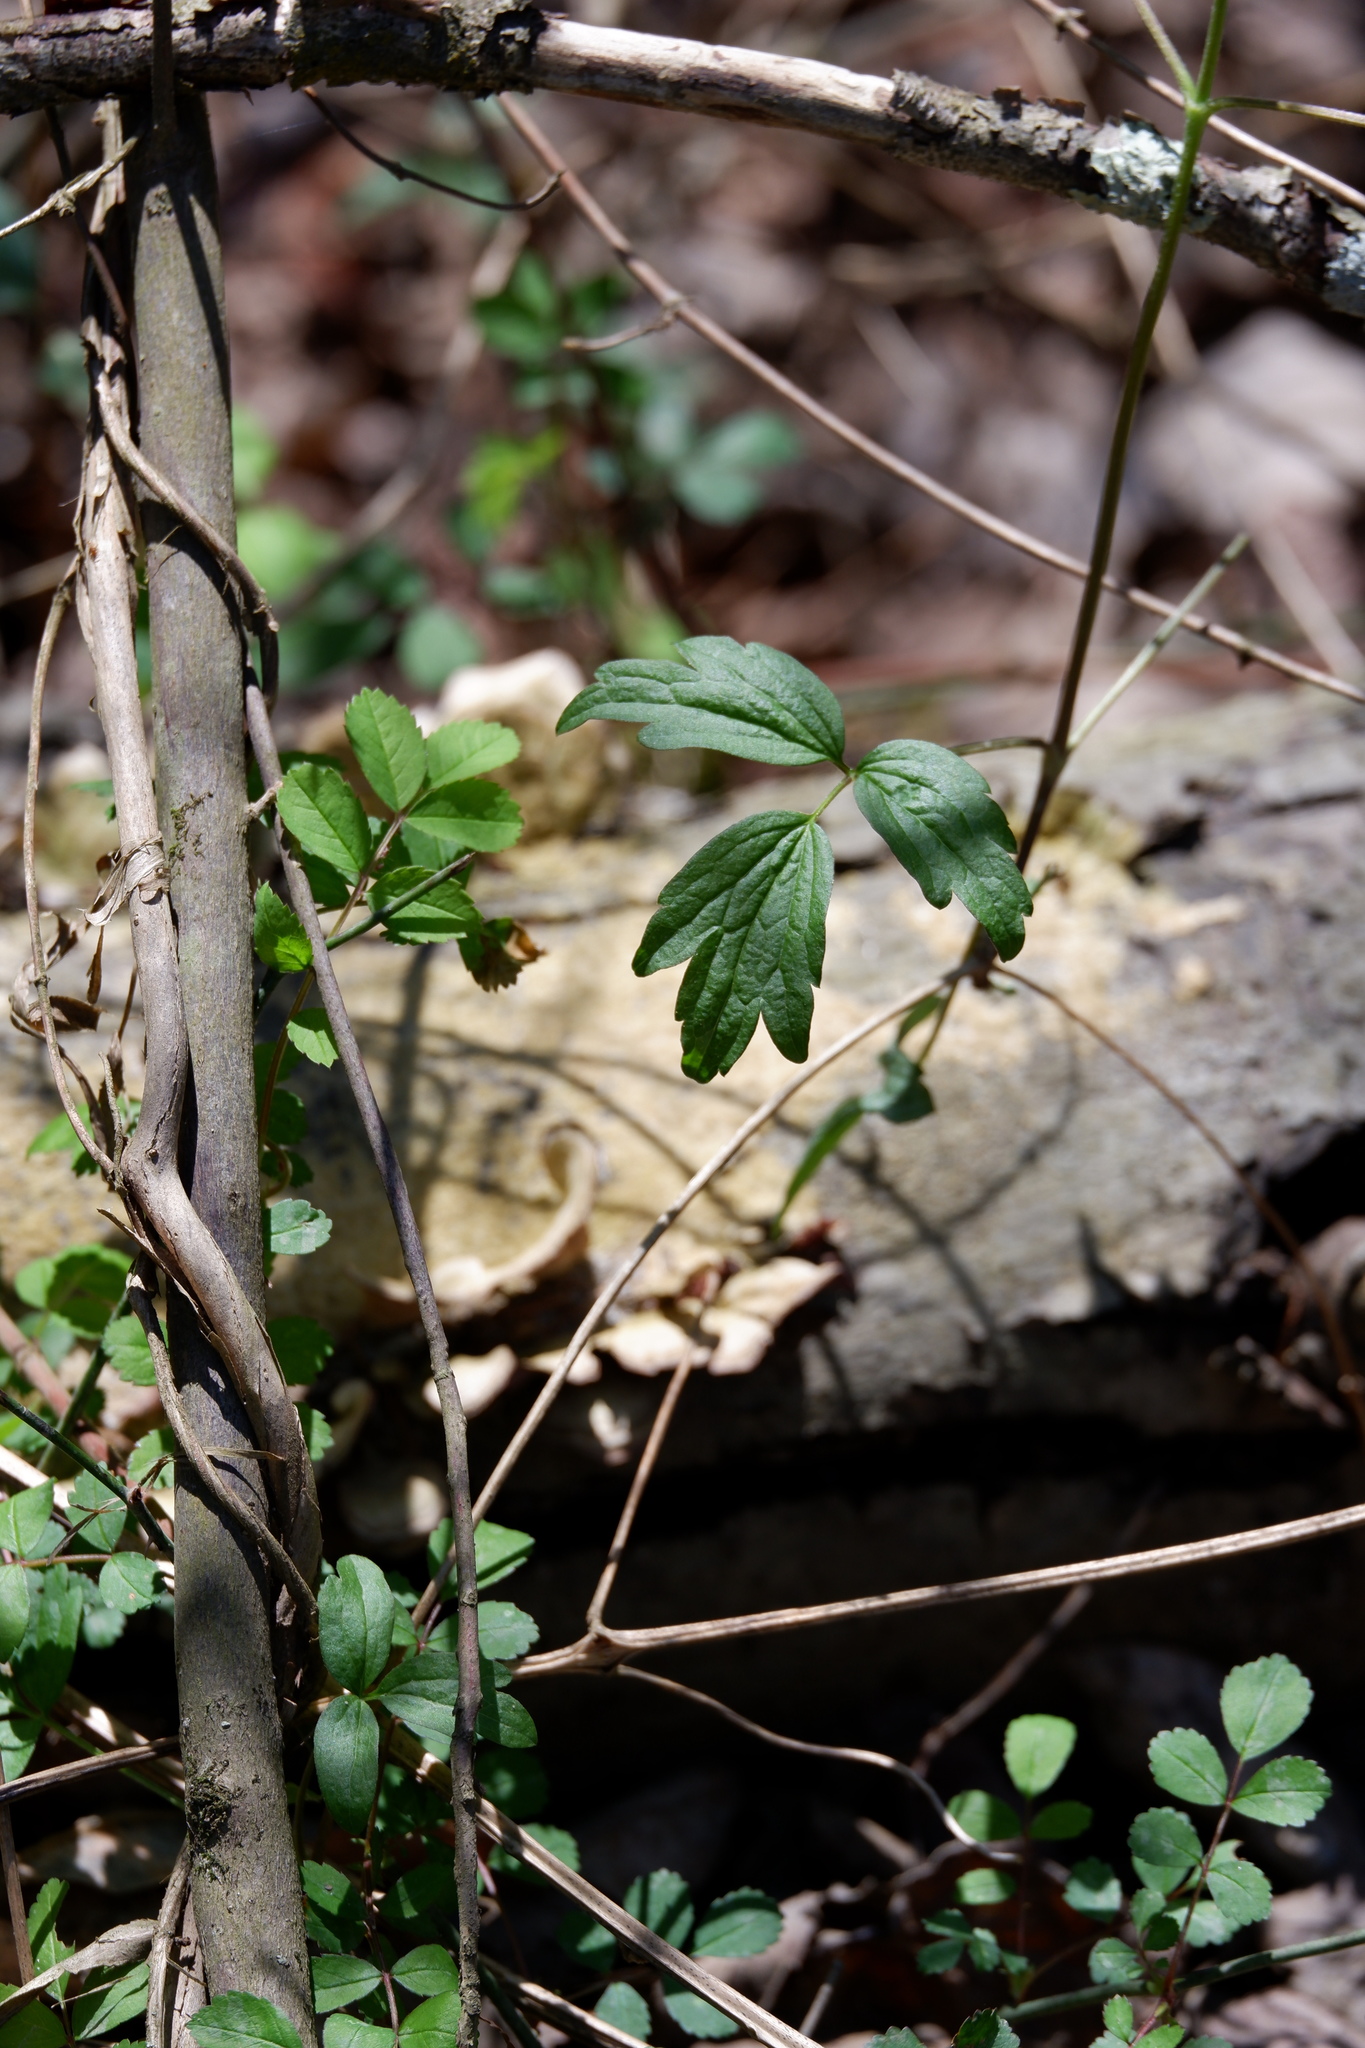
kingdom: Plantae
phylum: Tracheophyta
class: Magnoliopsida
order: Ranunculales
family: Ranunculaceae
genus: Clematis
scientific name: Clematis virginiana
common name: Virgin's-bower
